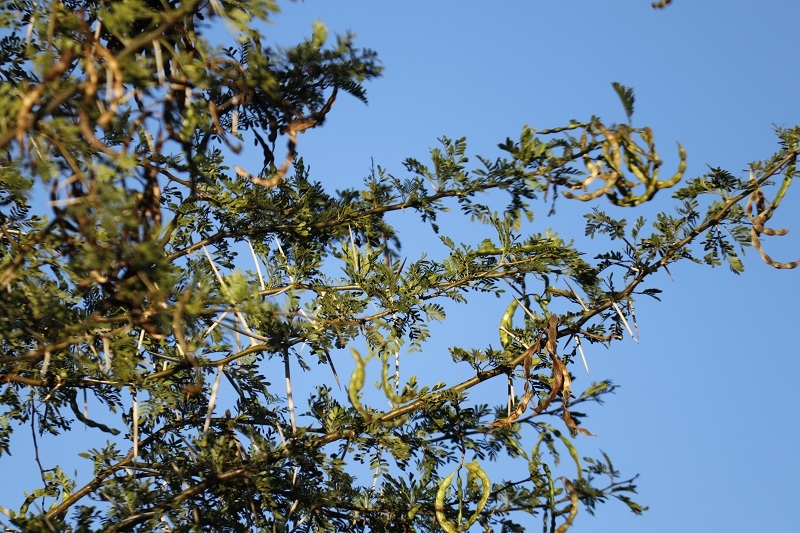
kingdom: Plantae
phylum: Tracheophyta
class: Magnoliopsida
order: Fabales
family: Fabaceae
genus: Vachellia
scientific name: Vachellia karroo
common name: Sweet thorn
